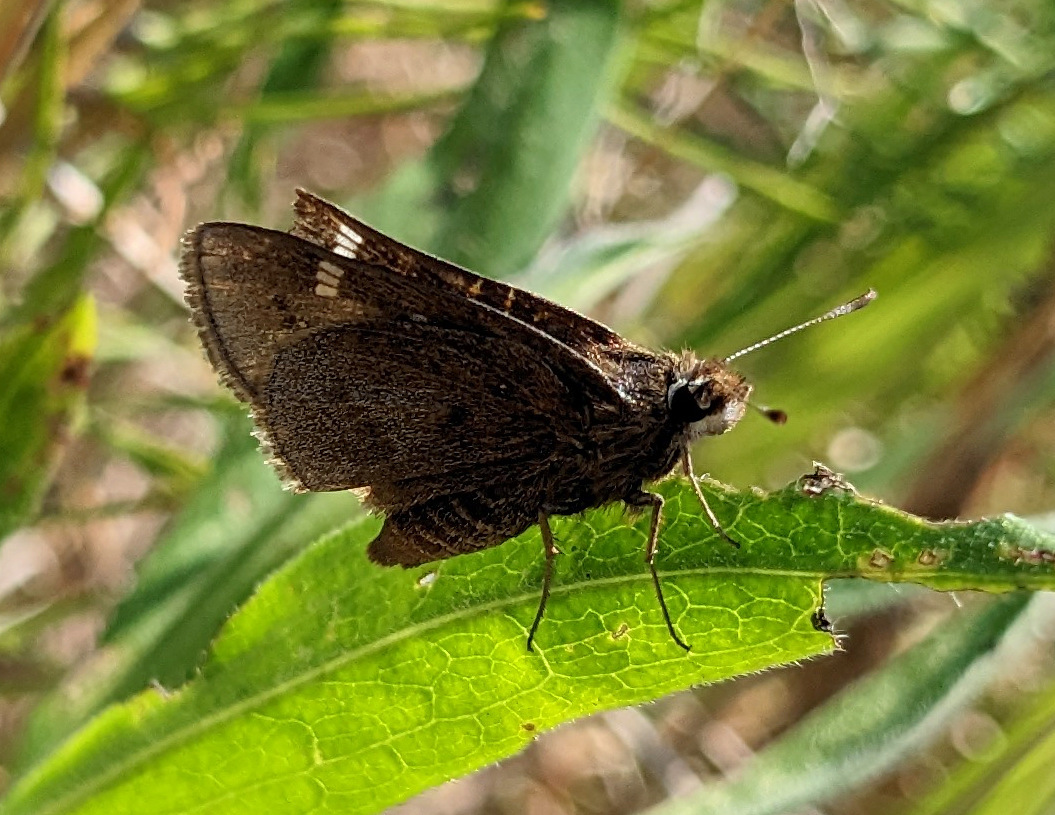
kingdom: Animalia
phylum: Arthropoda
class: Insecta
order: Lepidoptera
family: Hesperiidae
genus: Atrytonopsis
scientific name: Atrytonopsis hianna
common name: Dusted skipper
